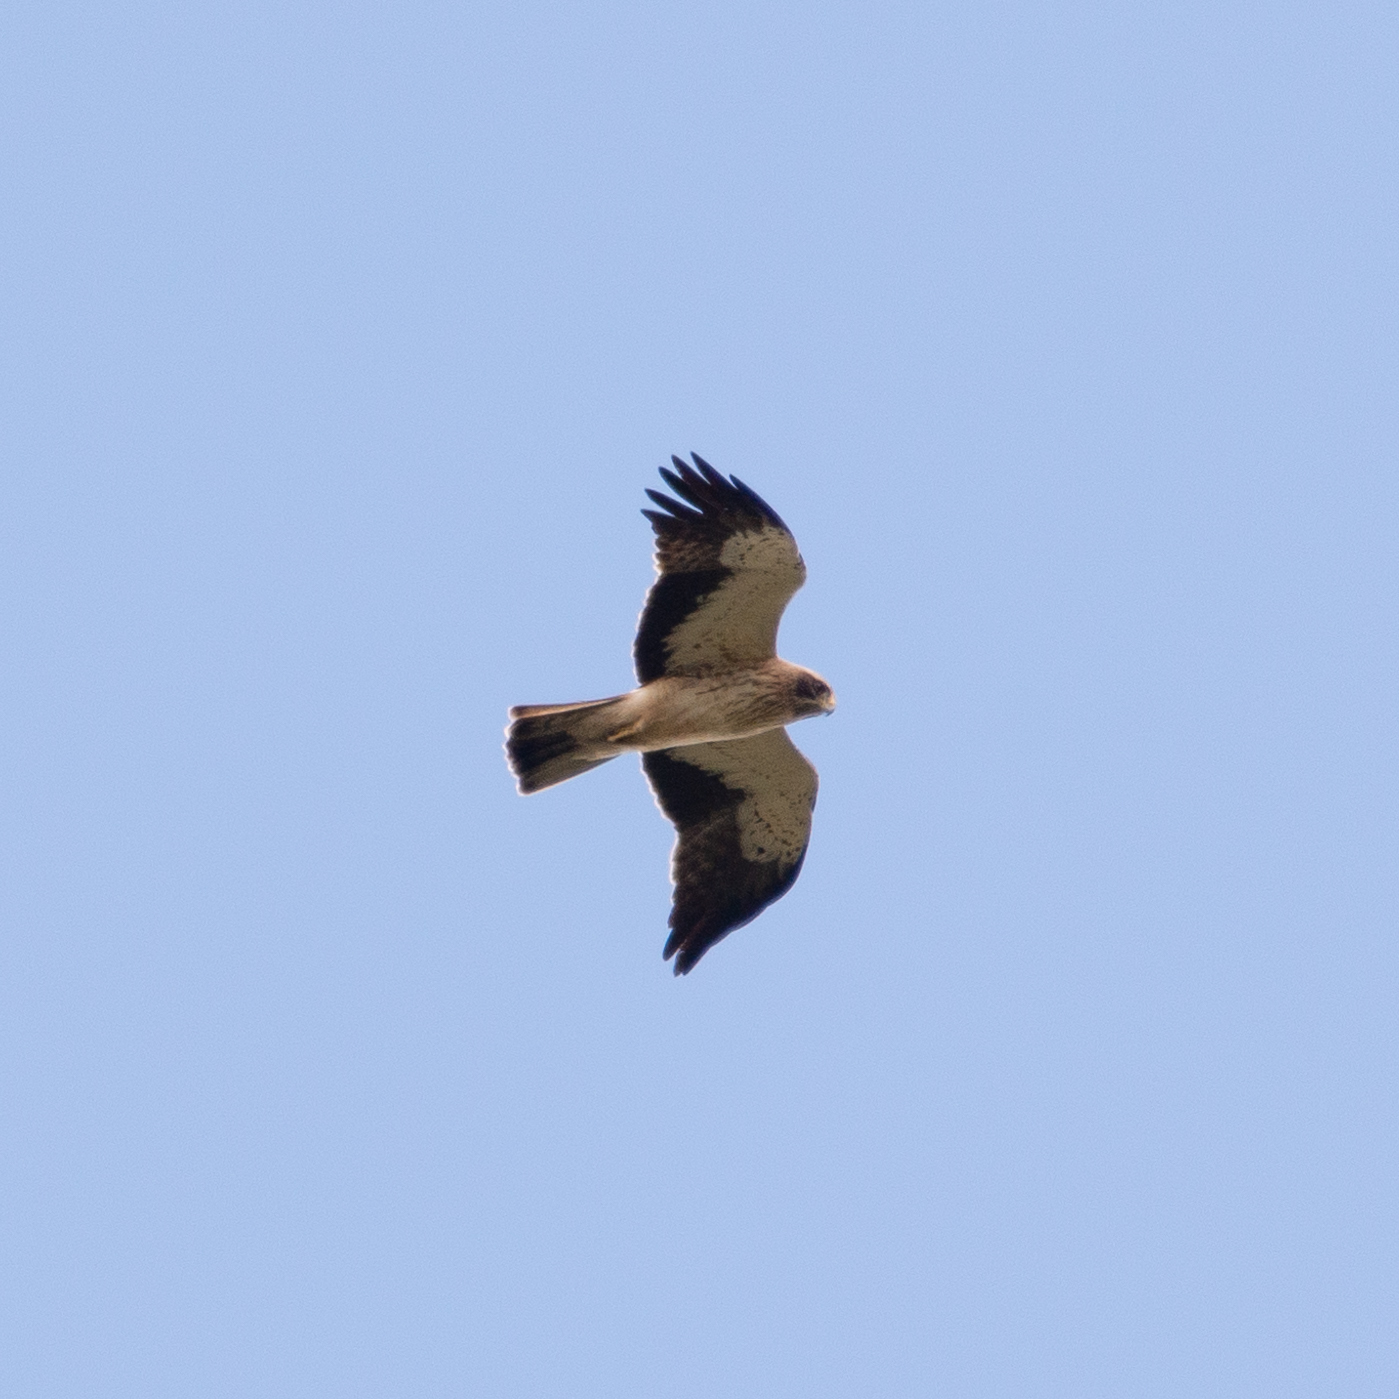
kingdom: Animalia
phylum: Chordata
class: Aves
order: Accipitriformes
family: Accipitridae
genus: Hieraaetus
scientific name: Hieraaetus pennatus
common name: Booted eagle
